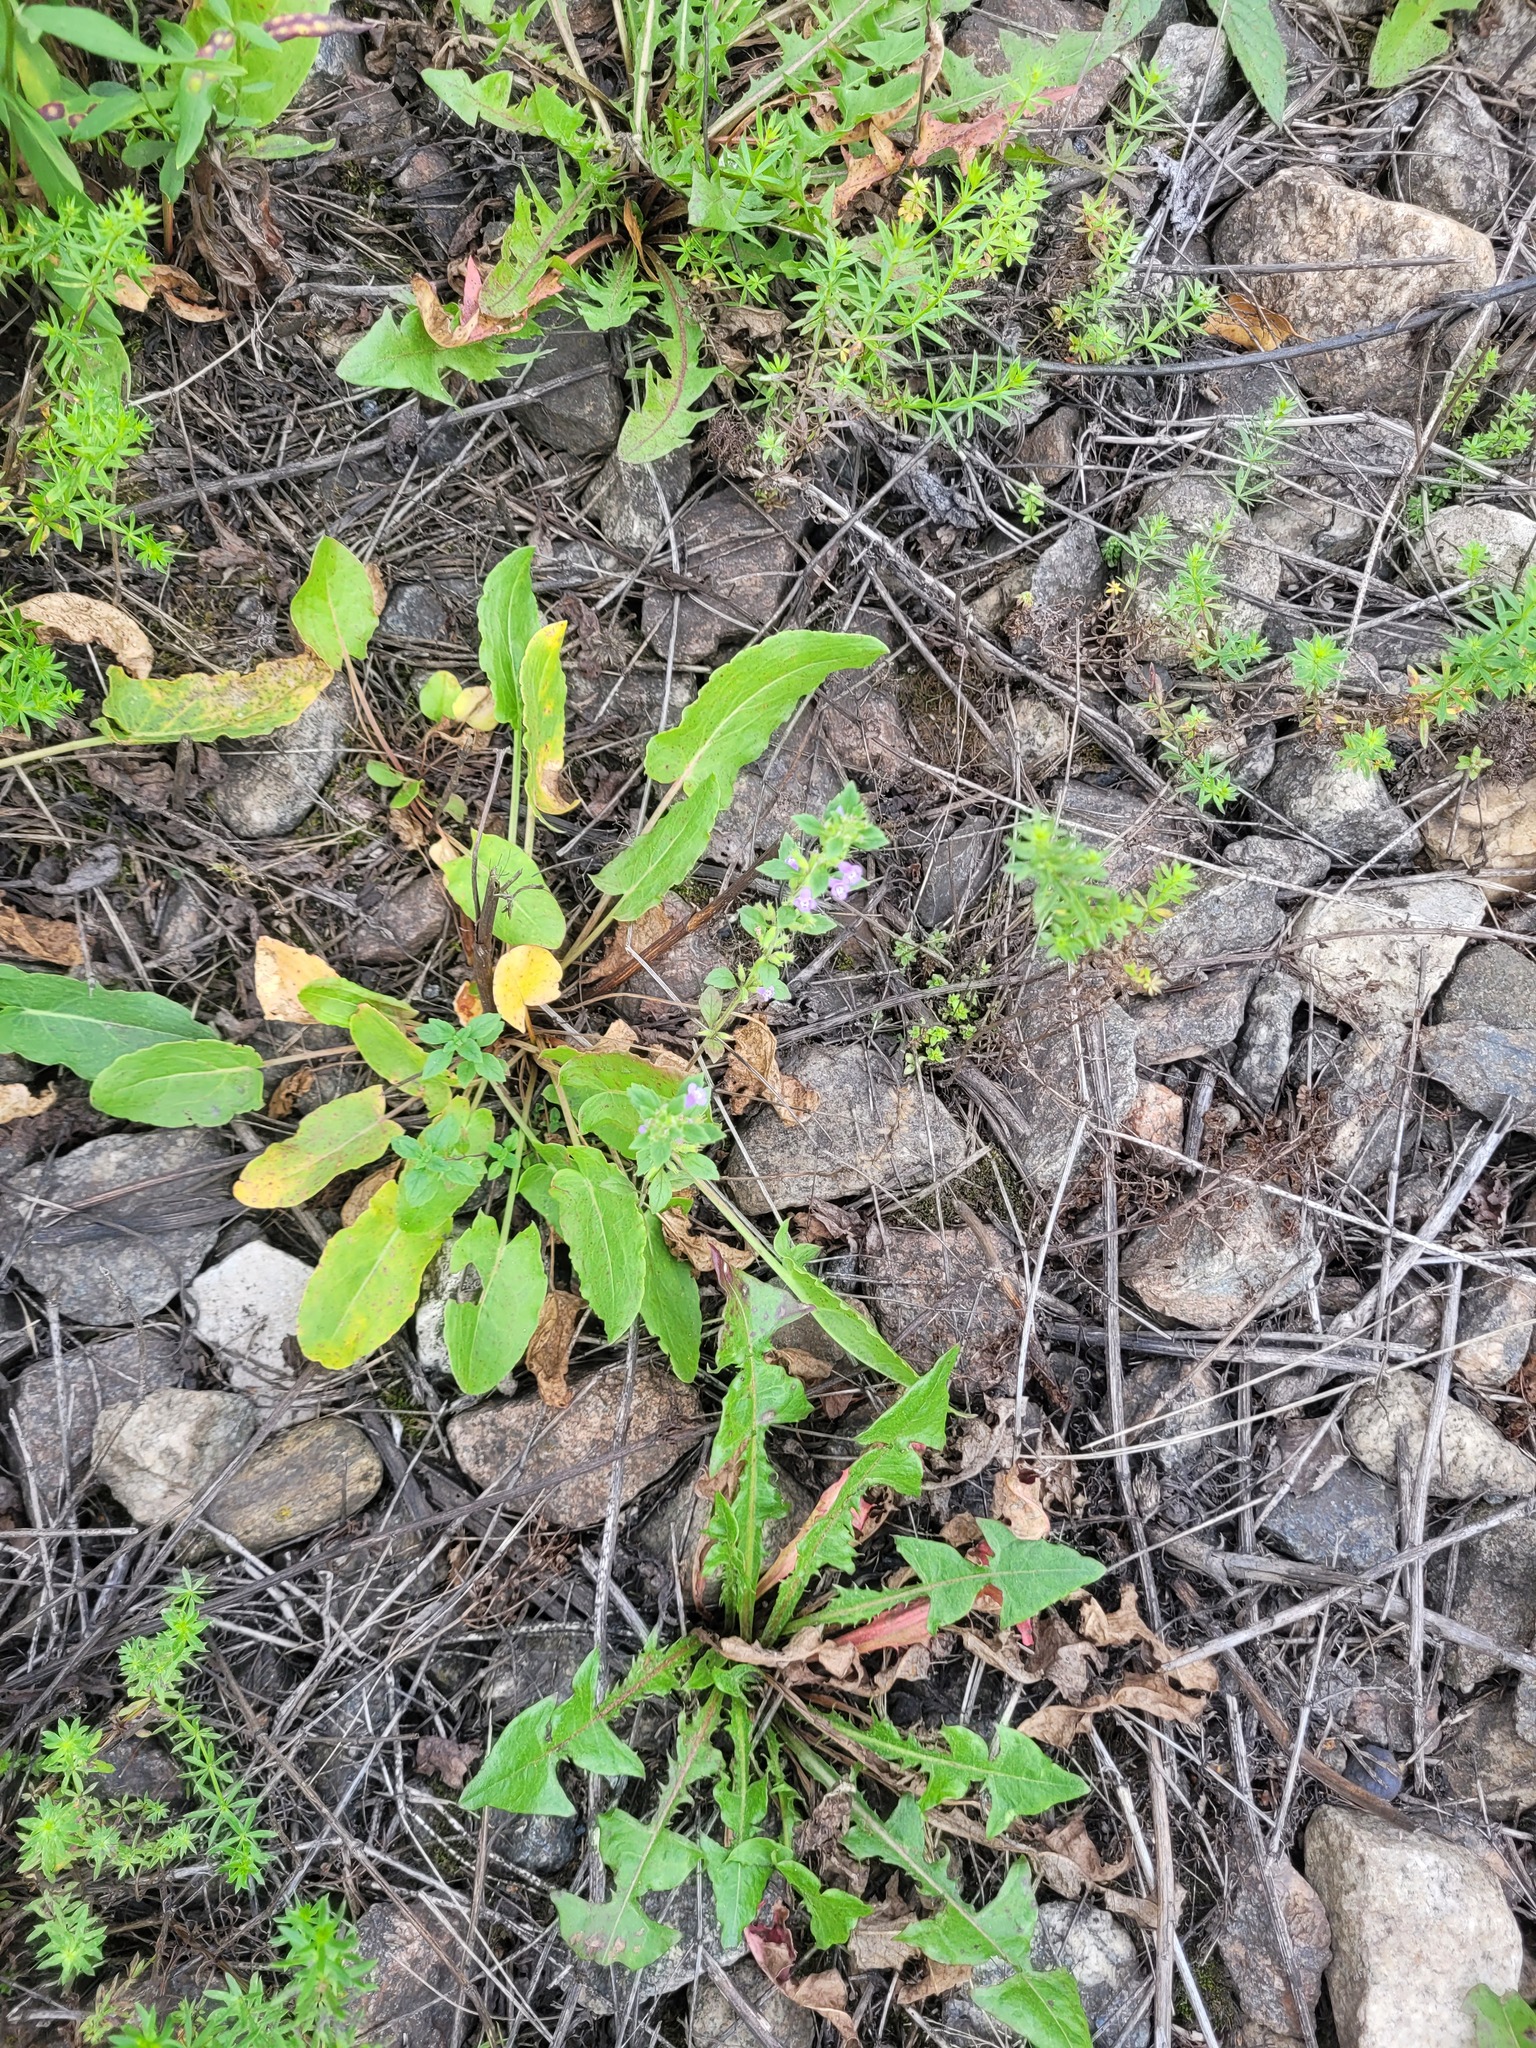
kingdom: Plantae
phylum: Tracheophyta
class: Magnoliopsida
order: Lamiales
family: Lamiaceae
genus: Clinopodium
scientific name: Clinopodium acinos
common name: Basil thyme
